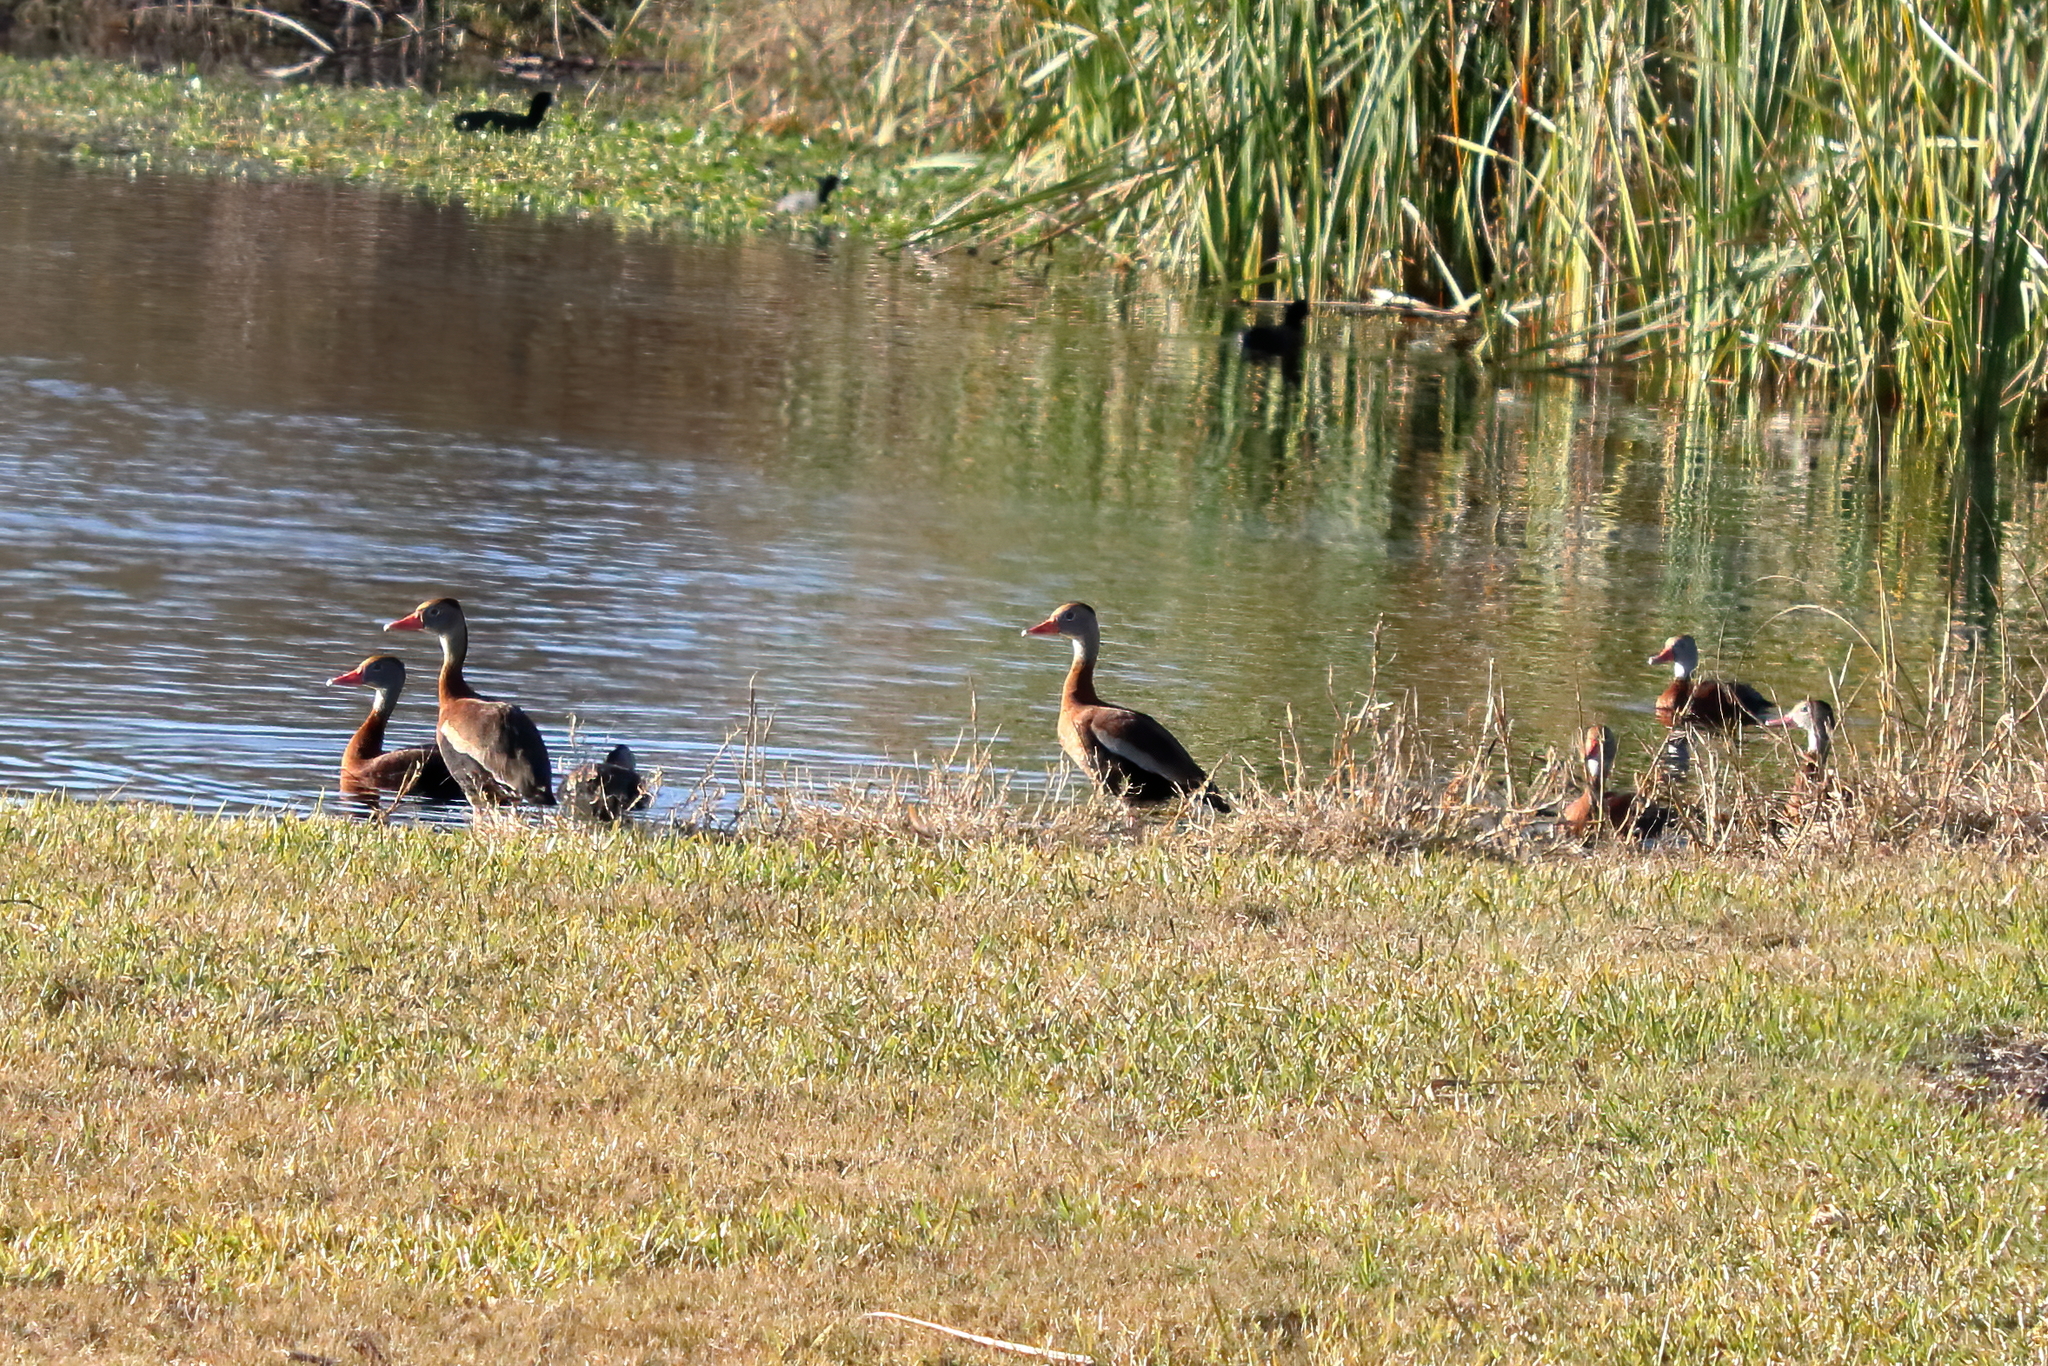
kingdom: Animalia
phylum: Chordata
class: Aves
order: Anseriformes
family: Anatidae
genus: Dendrocygna
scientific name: Dendrocygna autumnalis
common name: Black-bellied whistling duck
